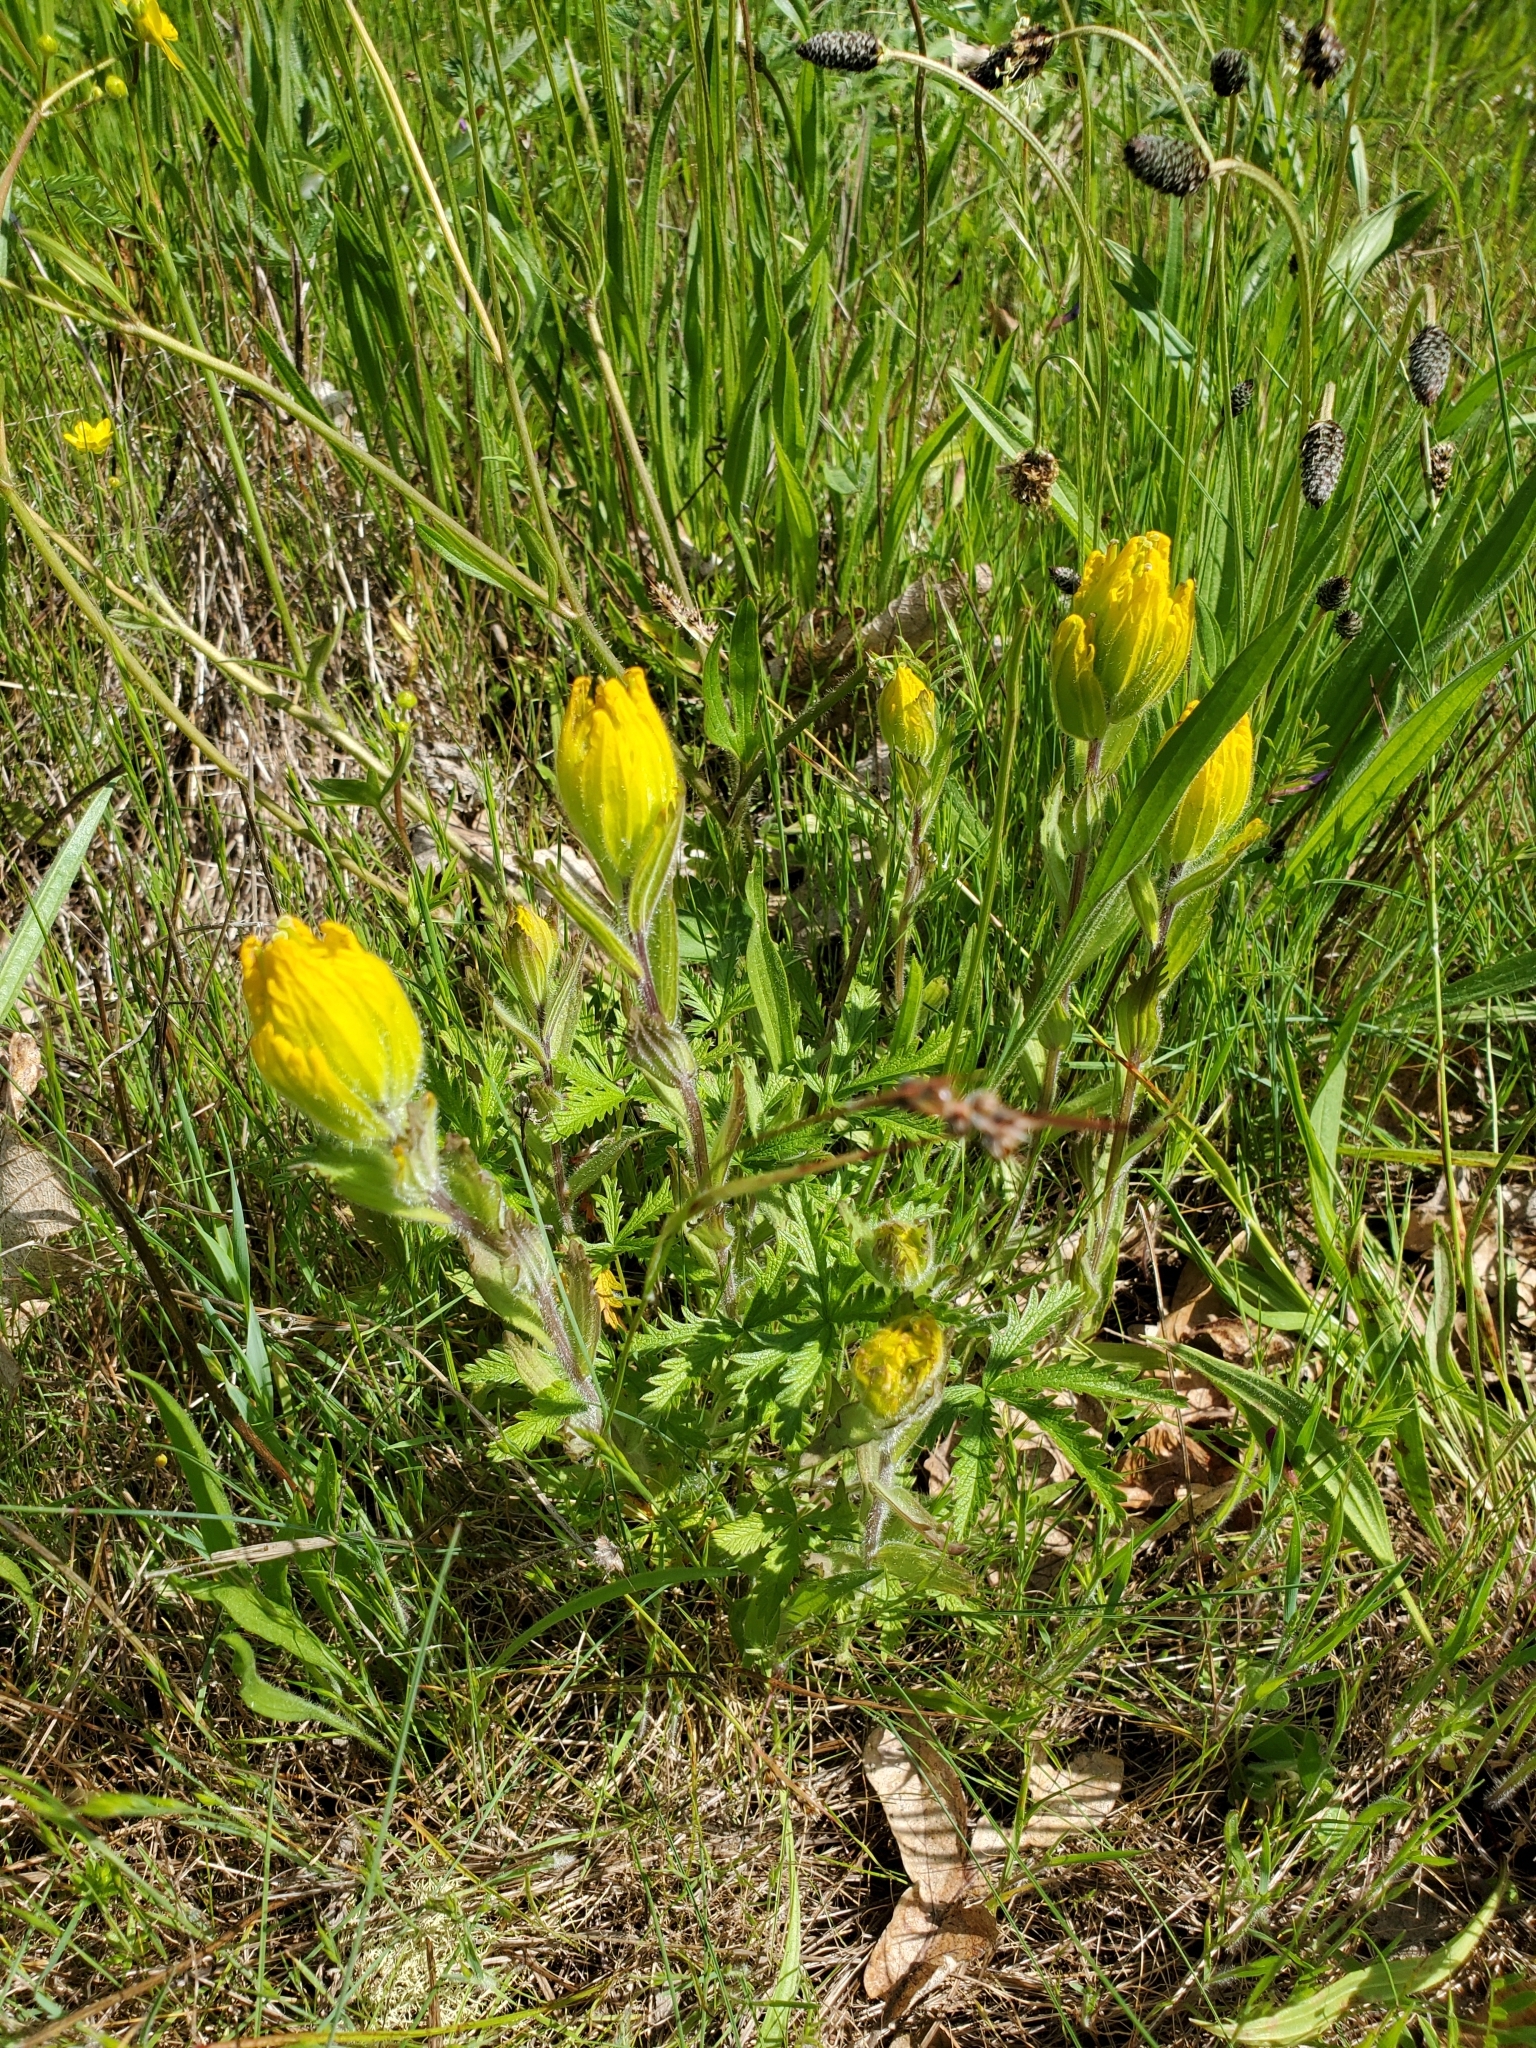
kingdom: Plantae
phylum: Tracheophyta
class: Magnoliopsida
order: Lamiales
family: Orobanchaceae
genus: Castilleja
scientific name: Castilleja levisecta
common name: Golden paintbrush
